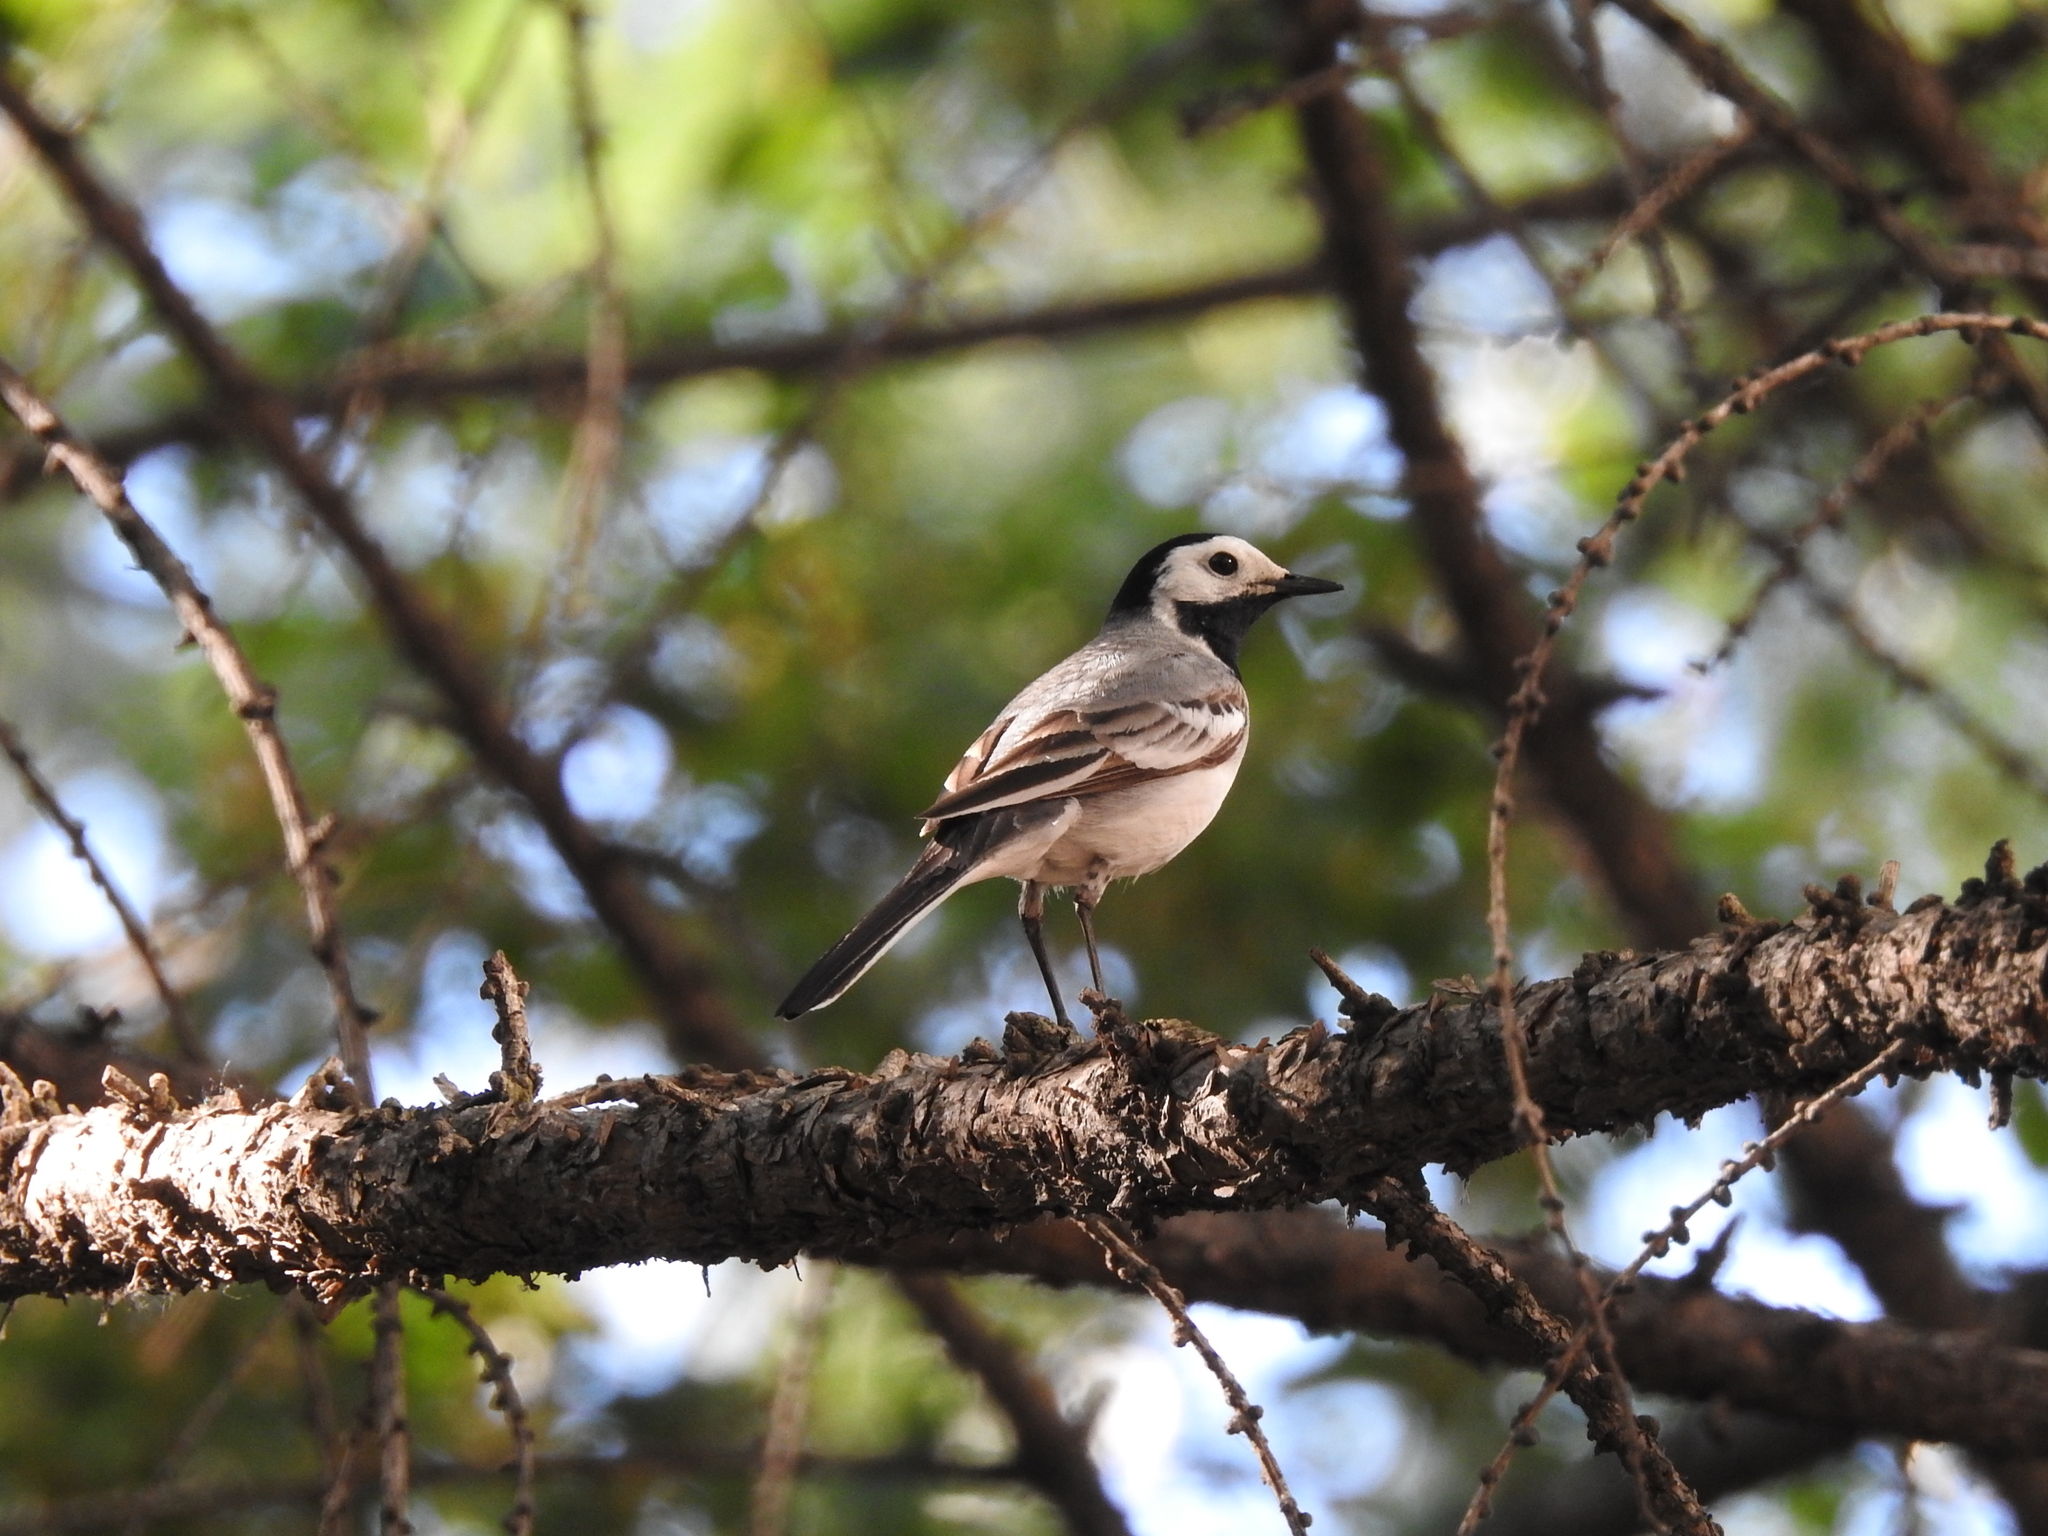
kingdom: Animalia
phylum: Chordata
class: Aves
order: Passeriformes
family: Motacillidae
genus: Motacilla
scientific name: Motacilla alba
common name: White wagtail
